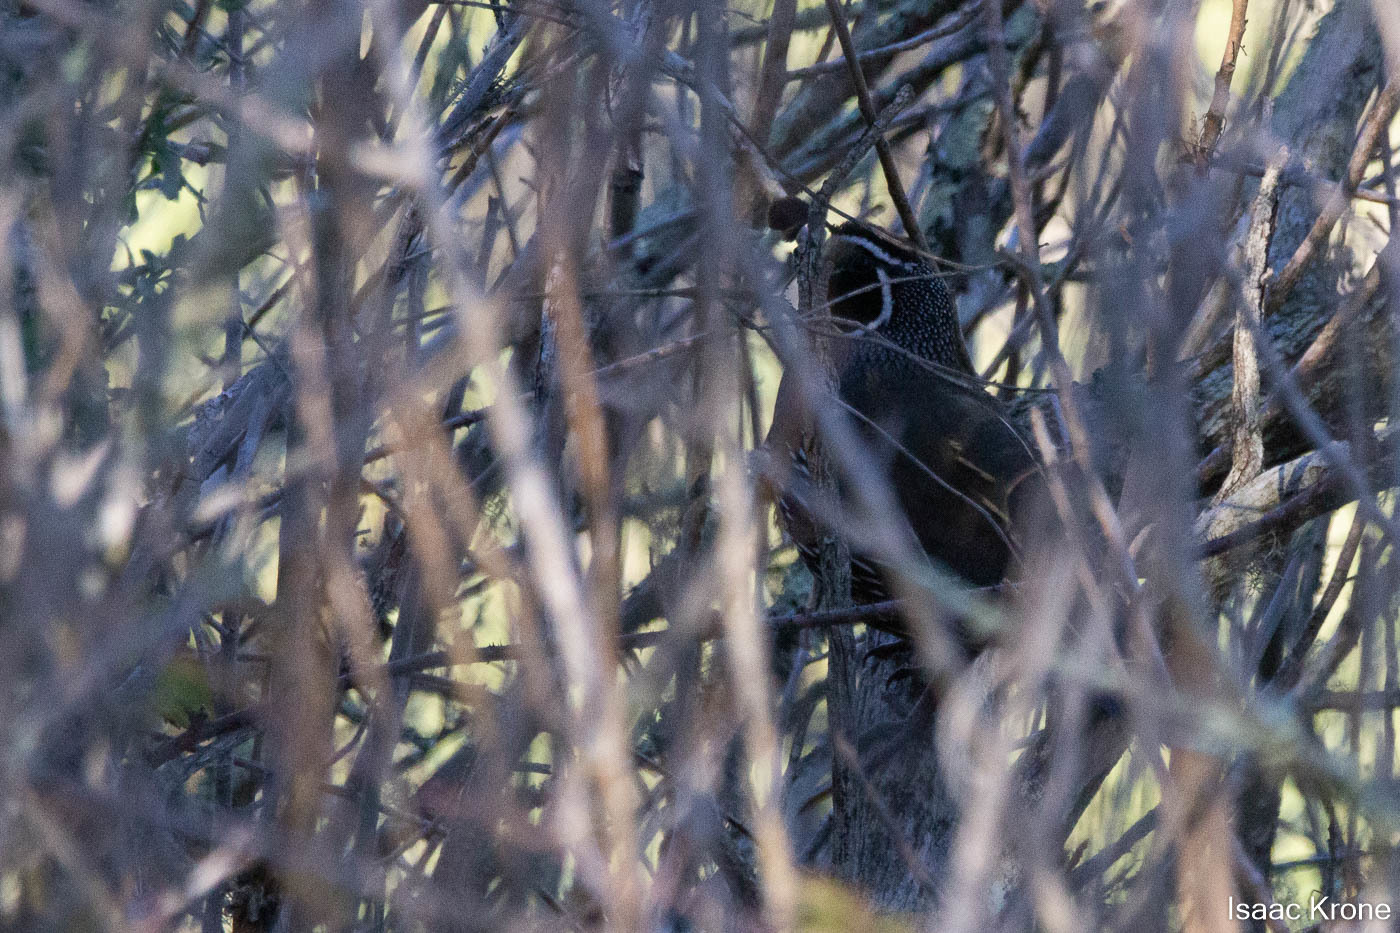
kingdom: Animalia
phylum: Chordata
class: Aves
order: Galliformes
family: Odontophoridae
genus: Callipepla
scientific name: Callipepla californica
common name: California quail
